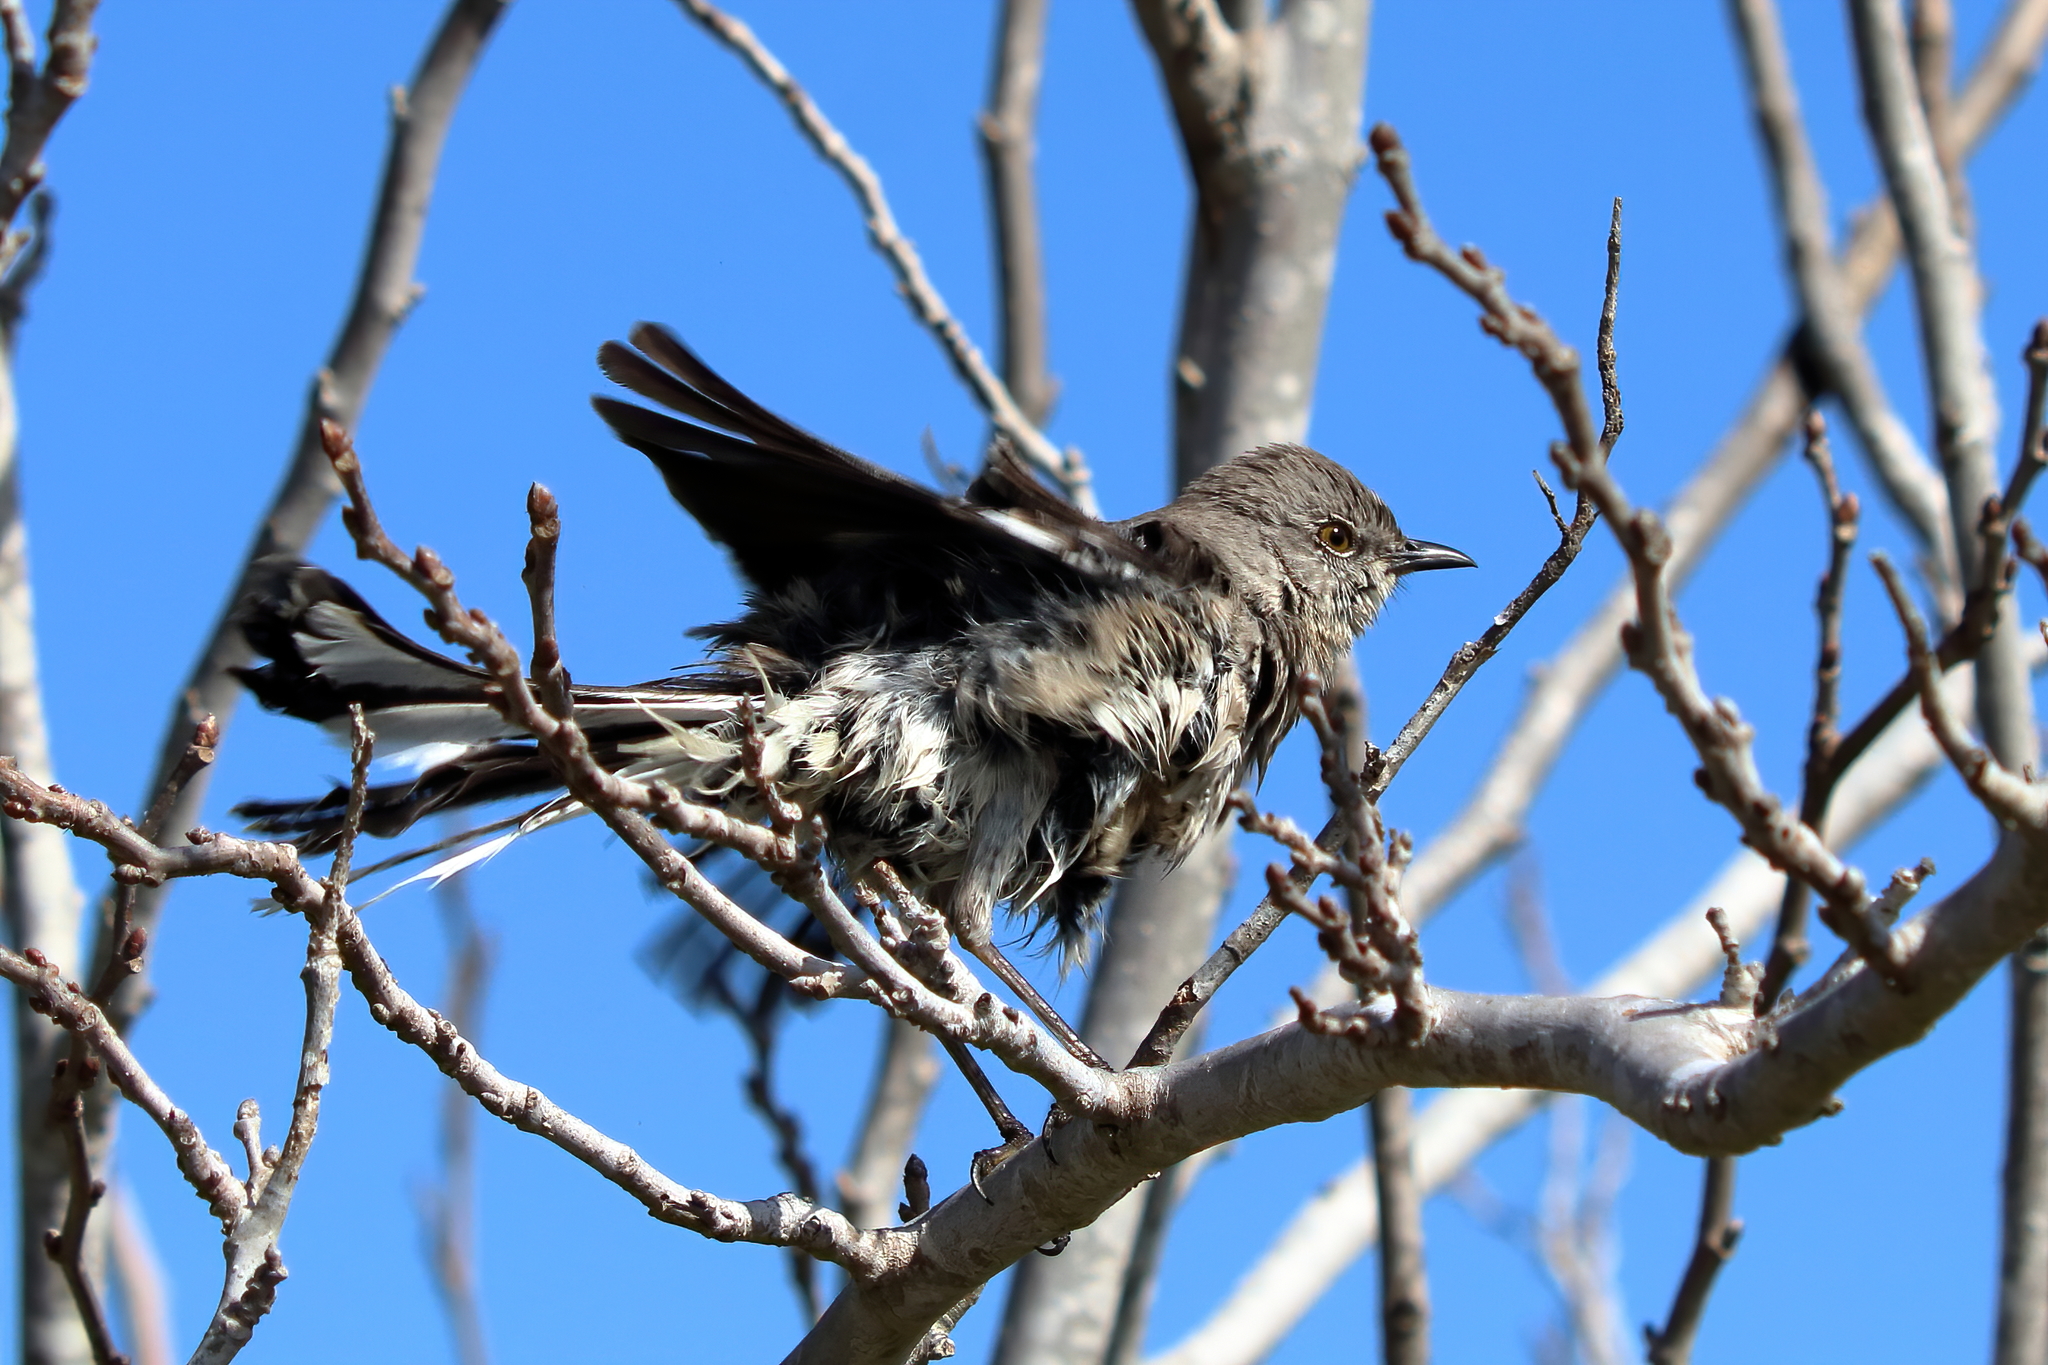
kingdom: Animalia
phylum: Chordata
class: Aves
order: Passeriformes
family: Mimidae
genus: Mimus
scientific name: Mimus polyglottos
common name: Northern mockingbird
